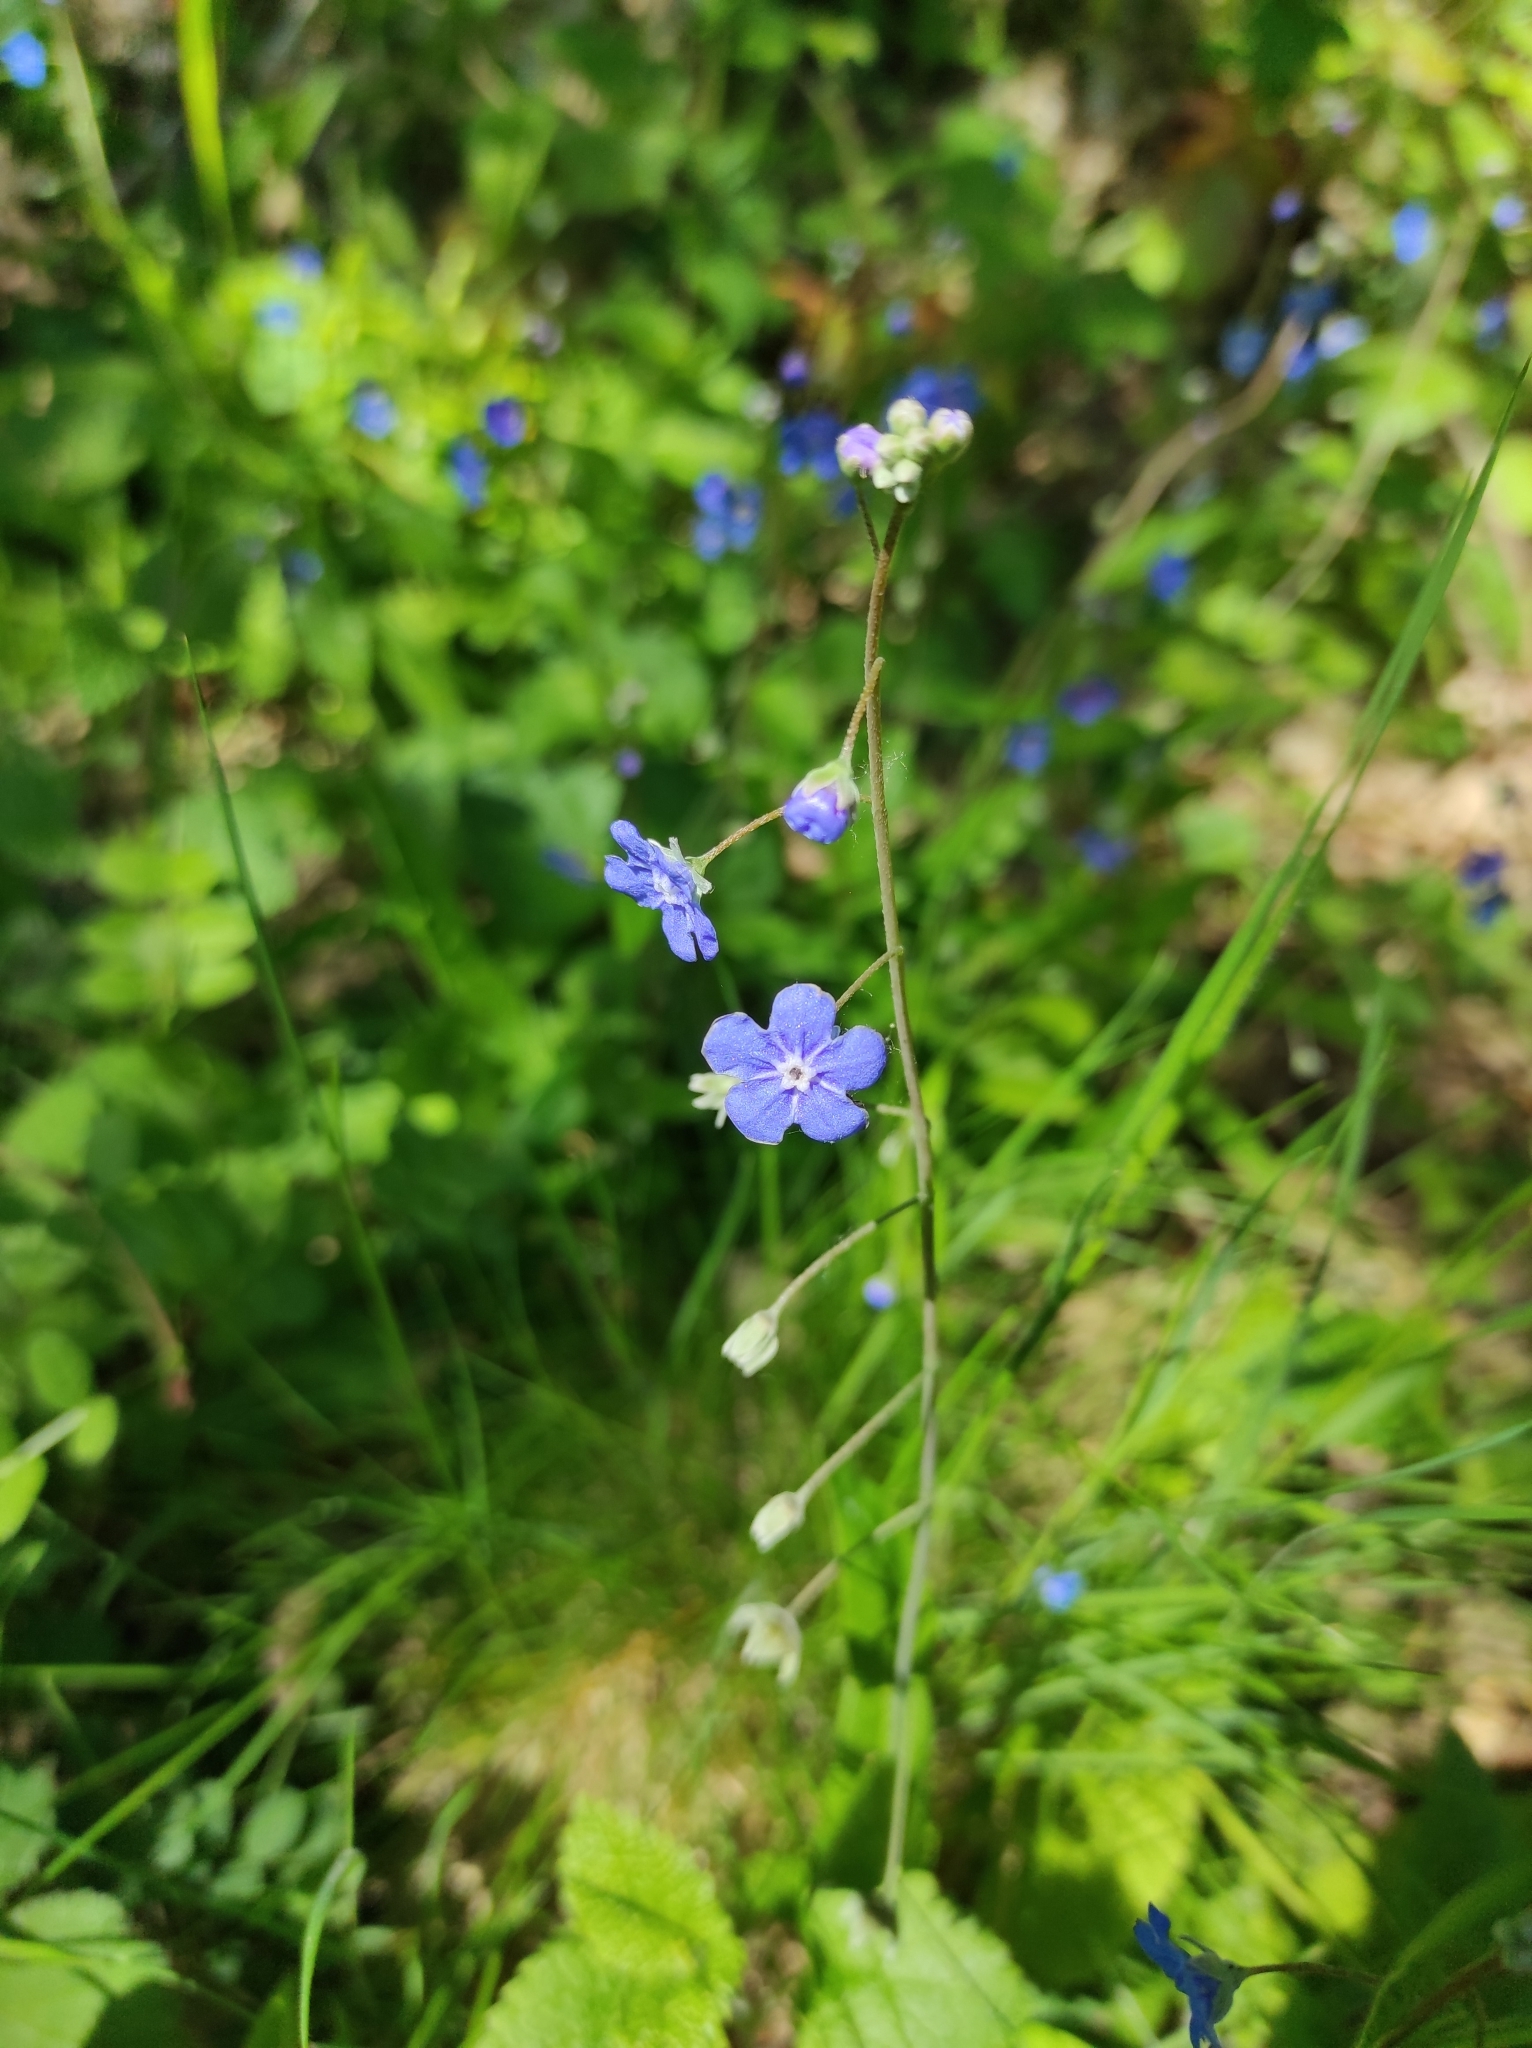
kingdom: Plantae
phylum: Tracheophyta
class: Magnoliopsida
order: Boraginales
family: Boraginaceae
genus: Omphalodes
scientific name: Omphalodes nitida
